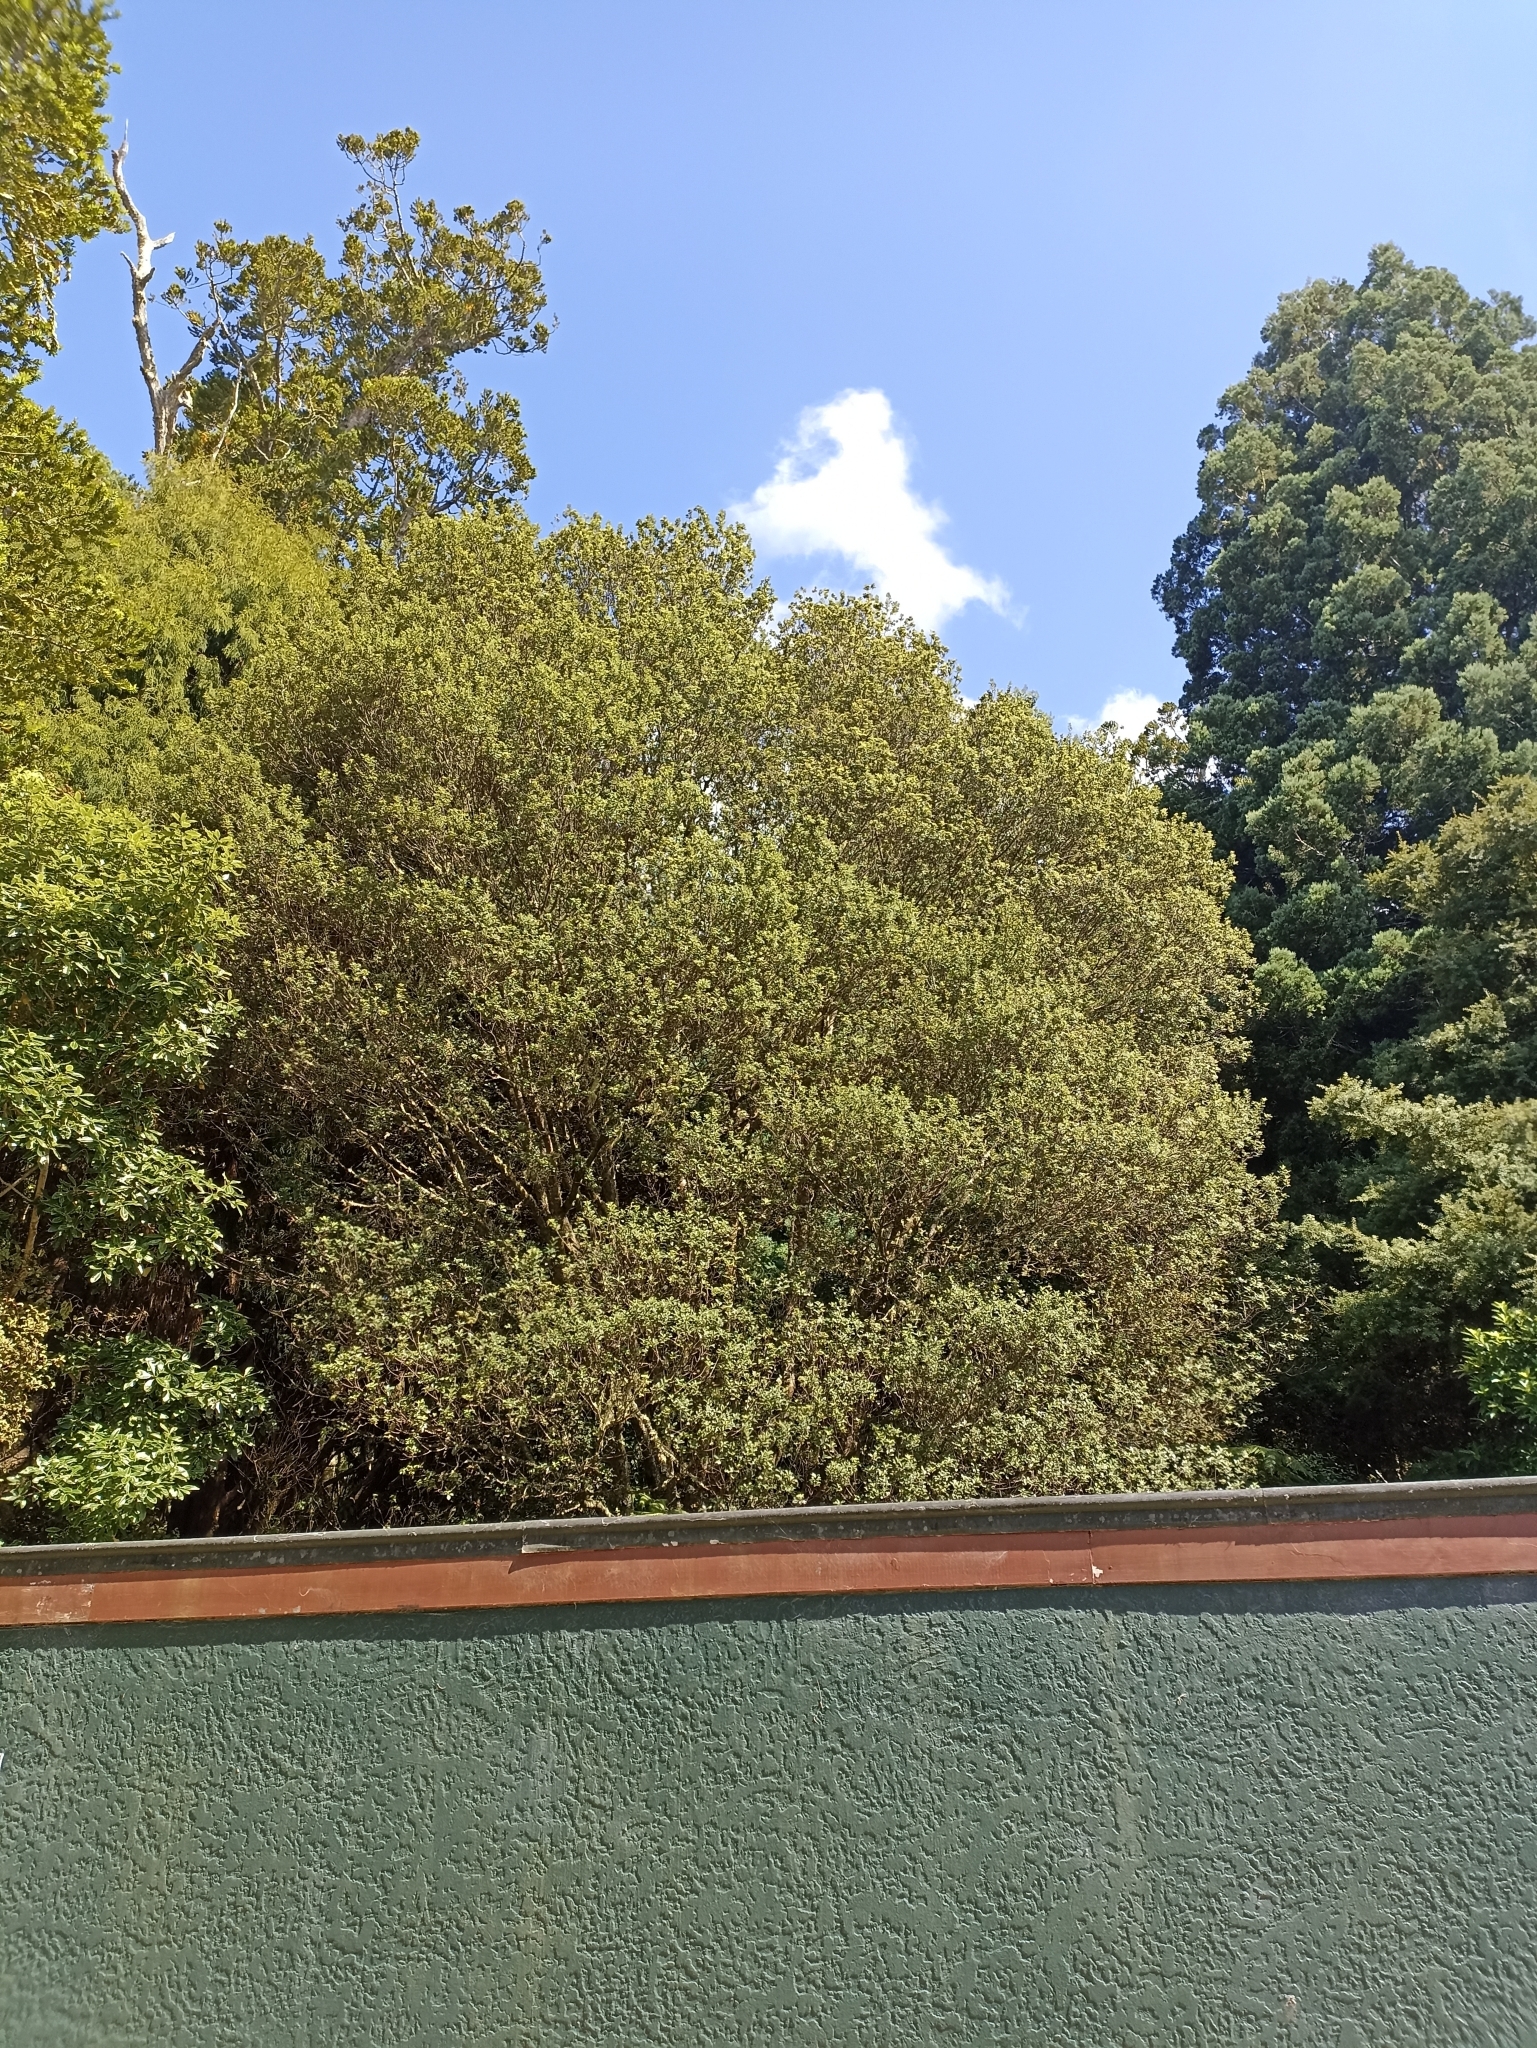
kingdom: Plantae
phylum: Tracheophyta
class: Magnoliopsida
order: Apiales
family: Pittosporaceae
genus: Pittosporum
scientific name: Pittosporum tenuifolium
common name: Kohuhu
